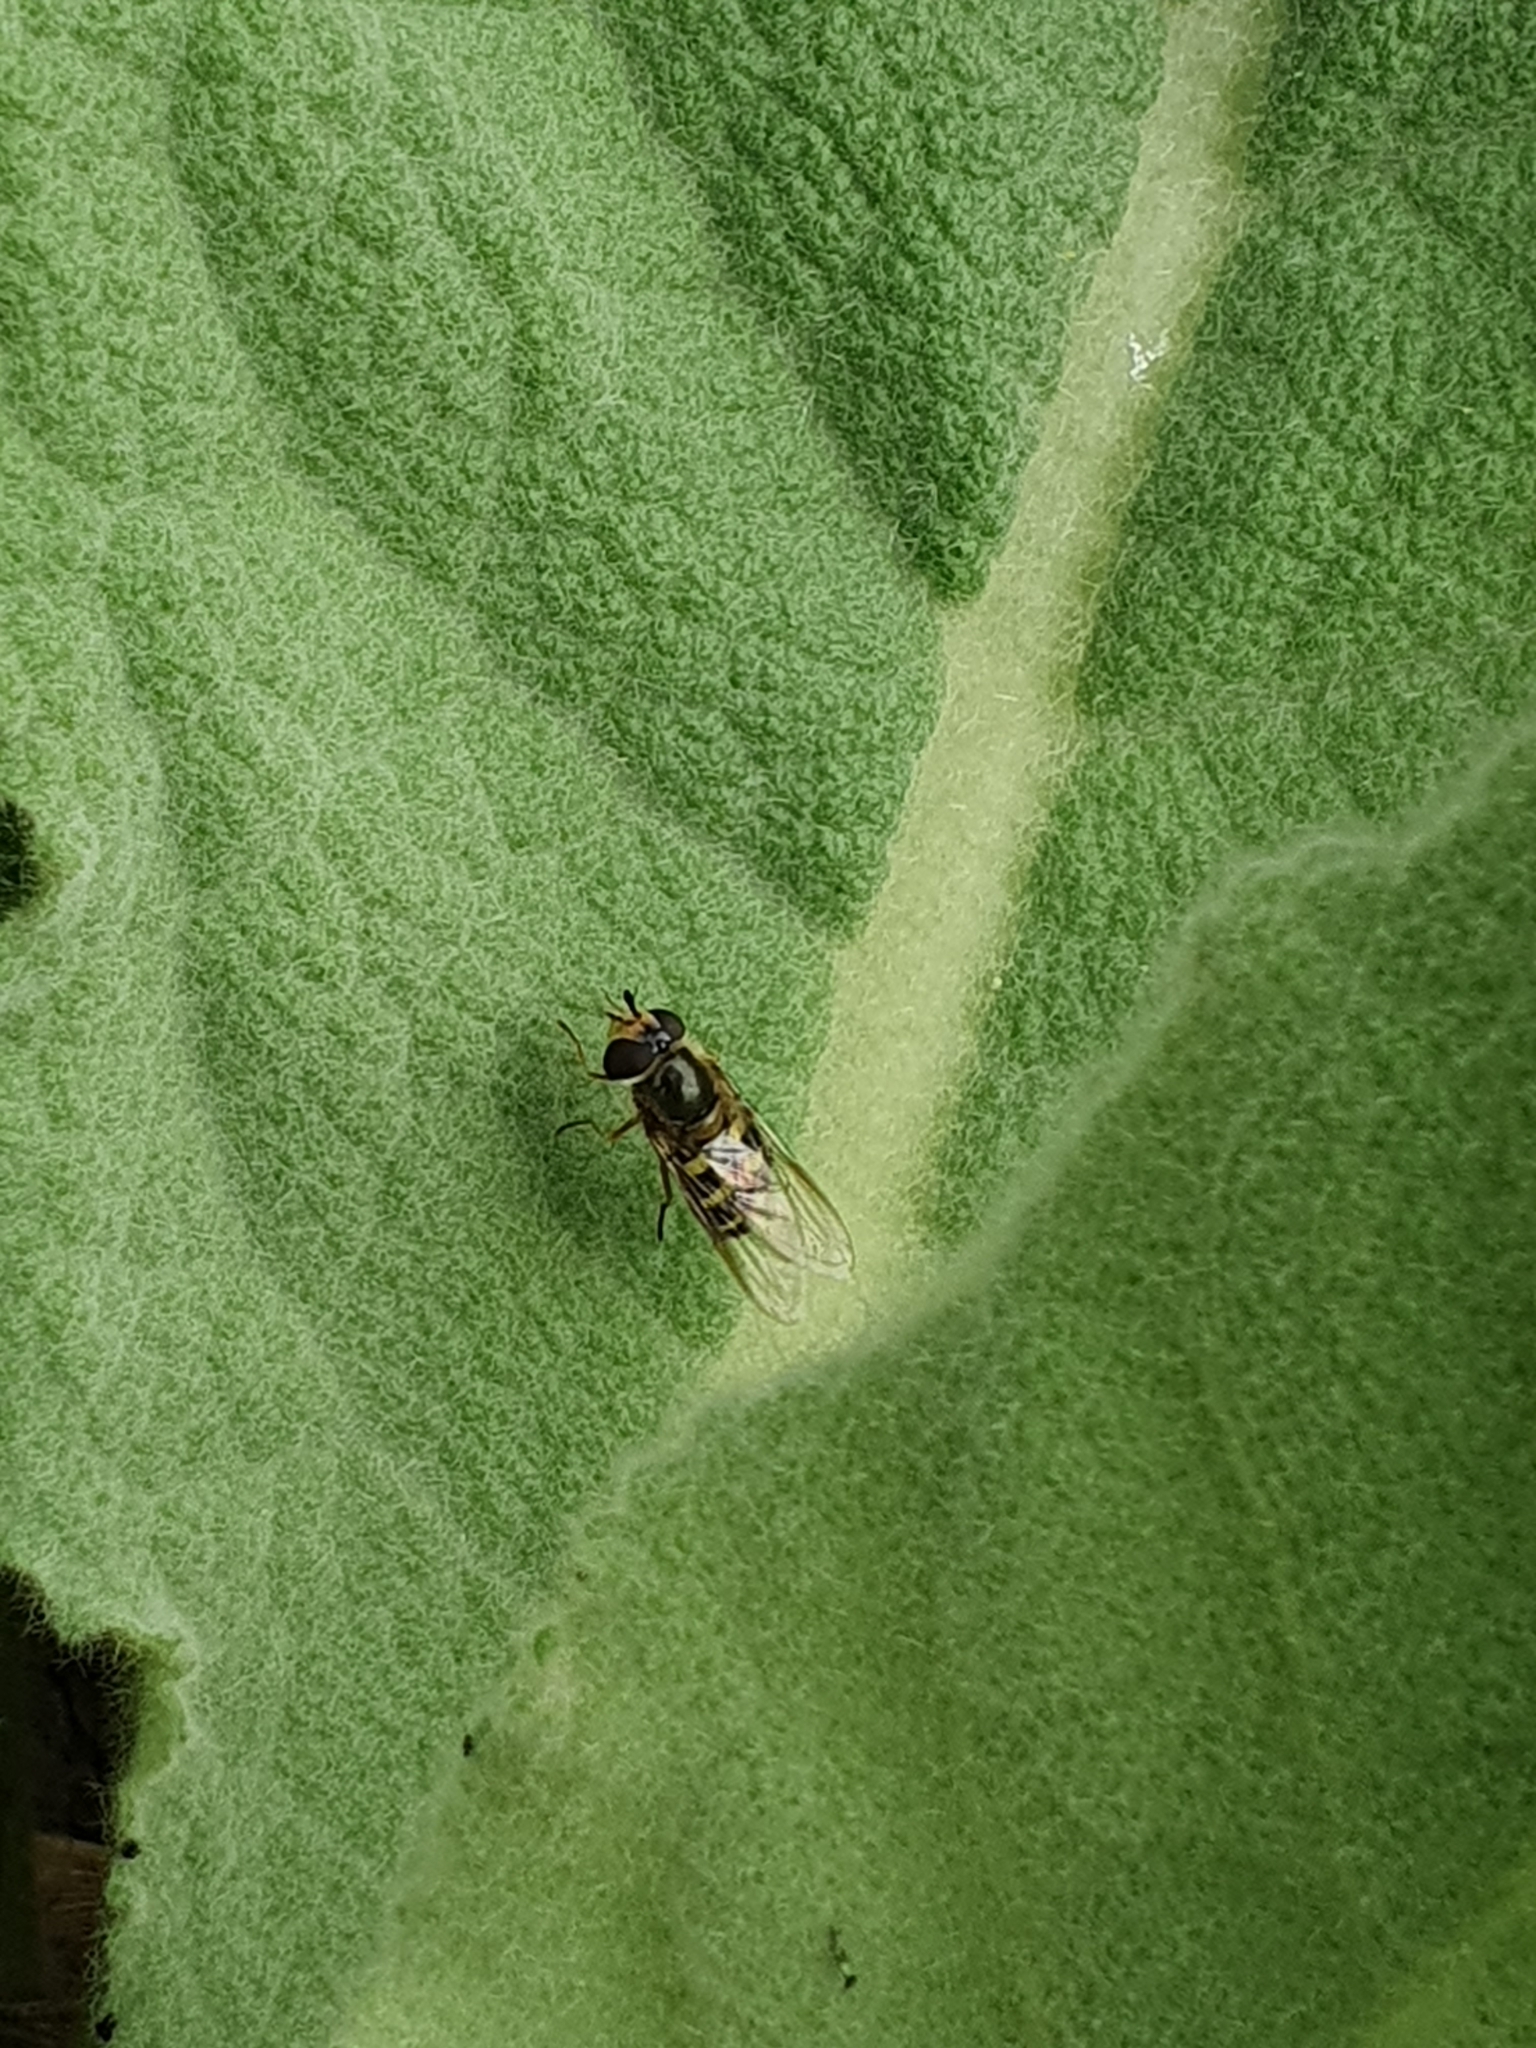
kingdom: Animalia
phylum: Arthropoda
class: Insecta
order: Diptera
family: Syrphidae
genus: Eupeodes
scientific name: Eupeodes
